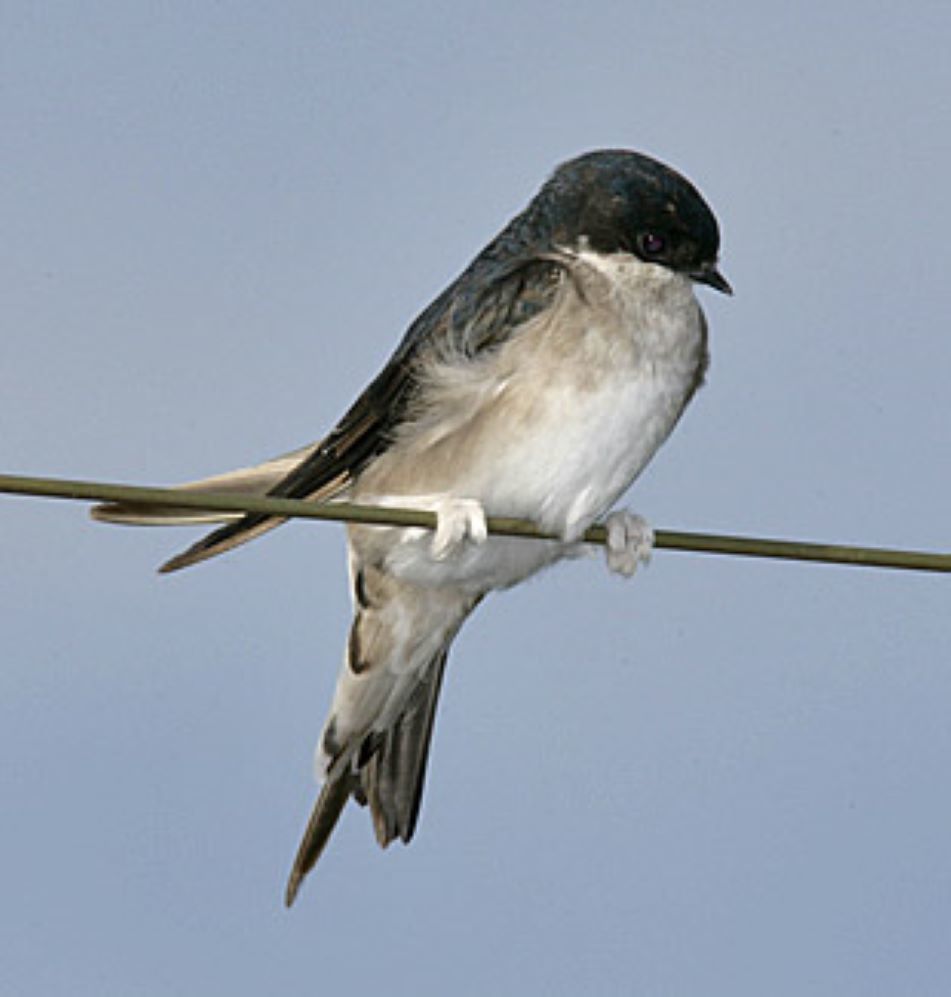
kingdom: Animalia
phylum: Chordata
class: Aves
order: Passeriformes
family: Hirundinidae
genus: Delichon
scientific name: Delichon urbicum
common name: Common house martin
